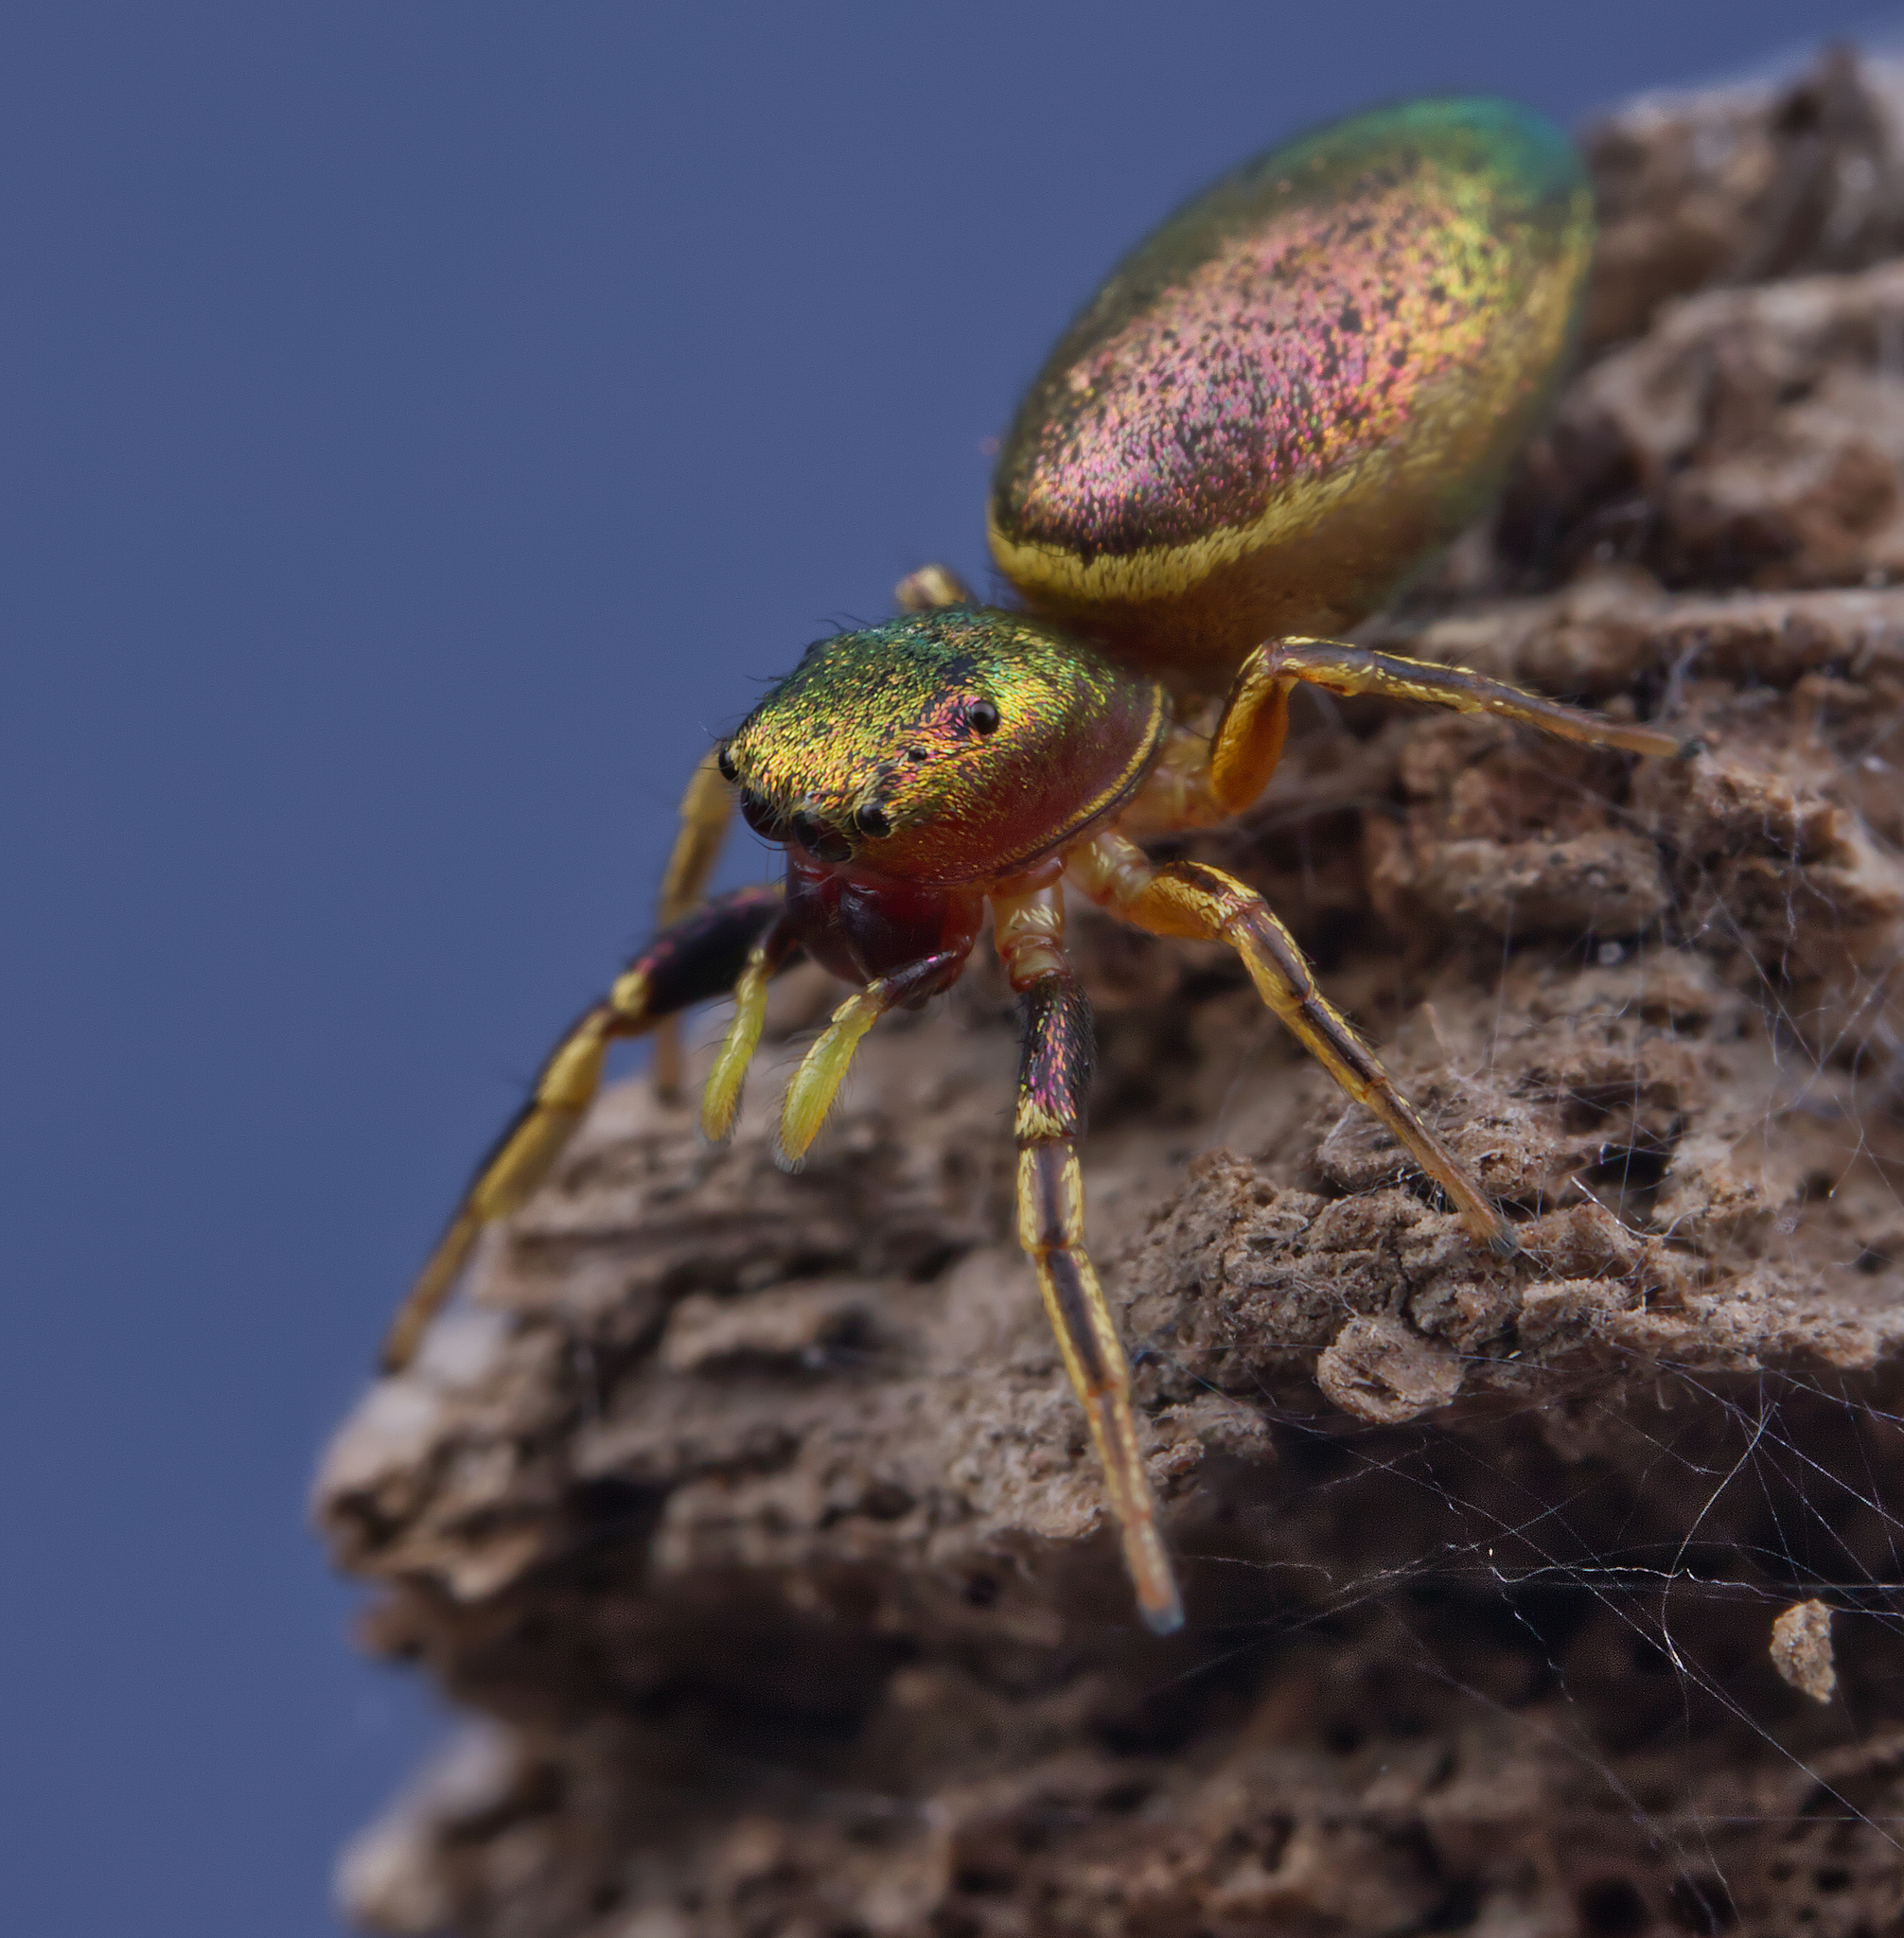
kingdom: Animalia
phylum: Arthropoda
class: Arachnida
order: Araneae
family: Salticidae
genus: Tutelina
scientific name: Tutelina elegans
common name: Thin-spined jumping spider
